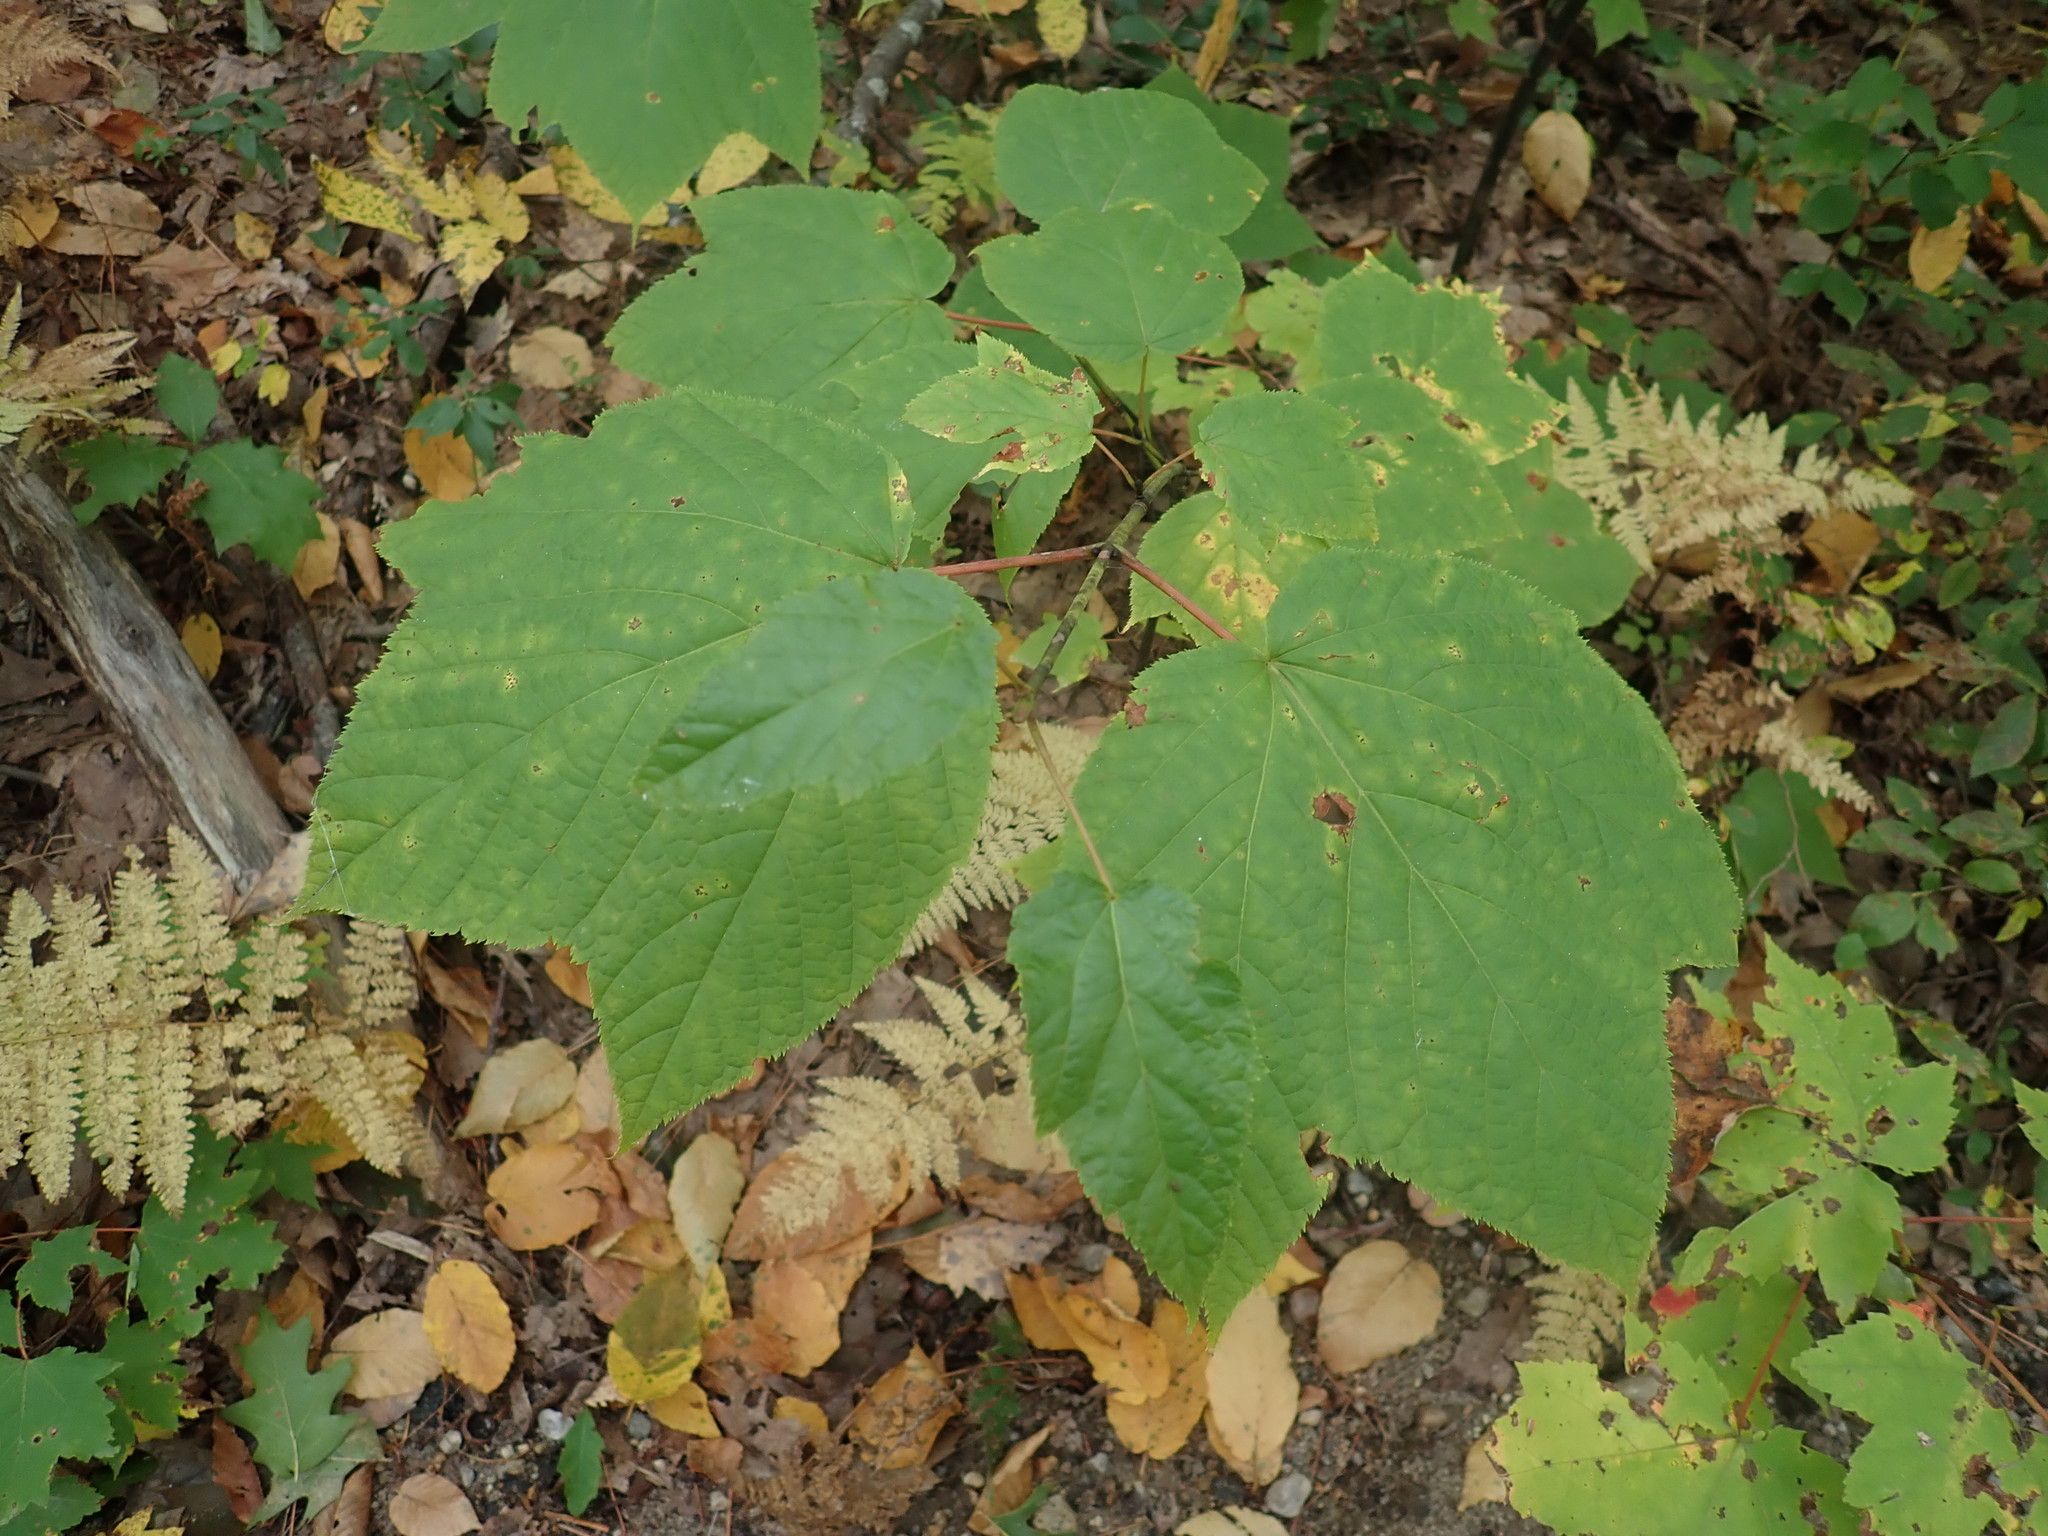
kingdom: Plantae
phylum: Tracheophyta
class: Magnoliopsida
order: Sapindales
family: Sapindaceae
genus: Acer
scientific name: Acer pensylvanicum
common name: Moosewood
